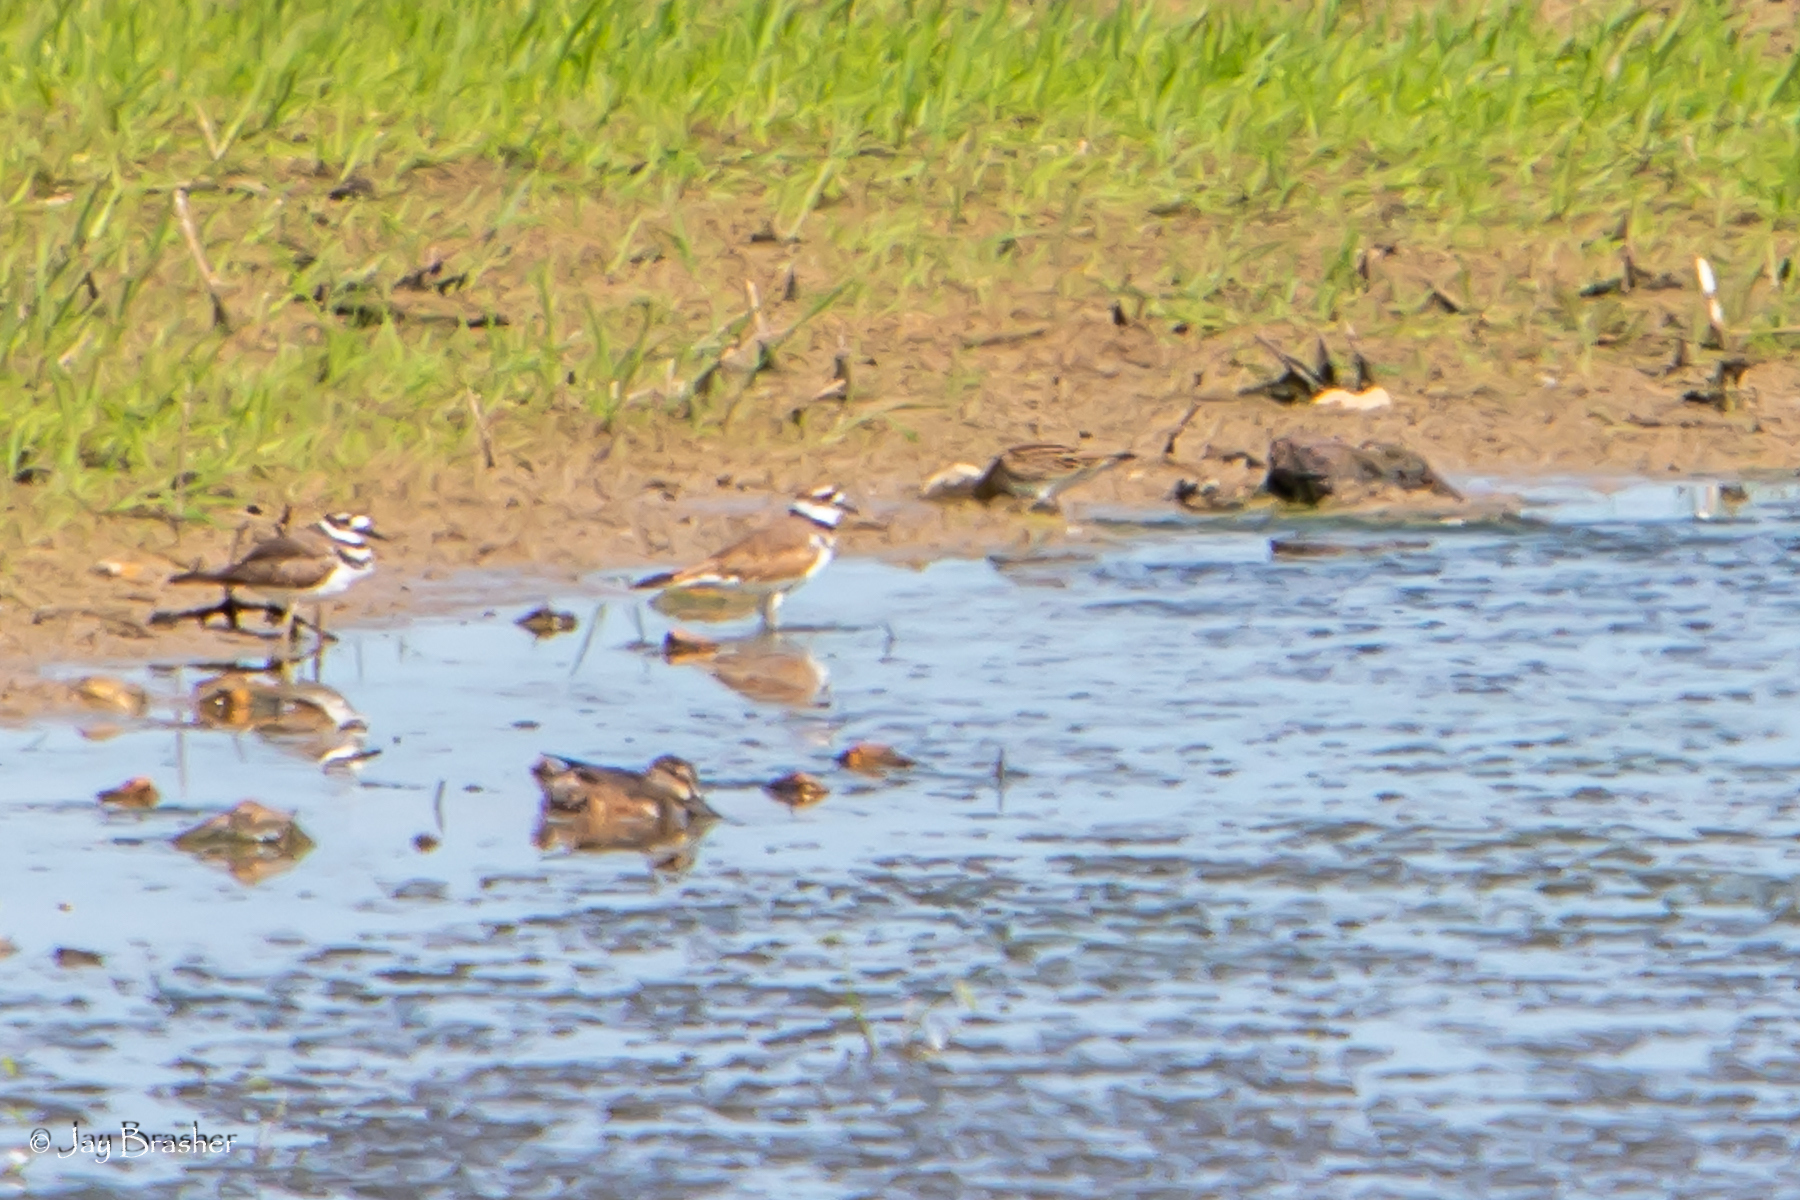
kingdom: Animalia
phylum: Chordata
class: Aves
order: Charadriiformes
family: Charadriidae
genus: Charadrius
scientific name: Charadrius vociferus
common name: Killdeer
